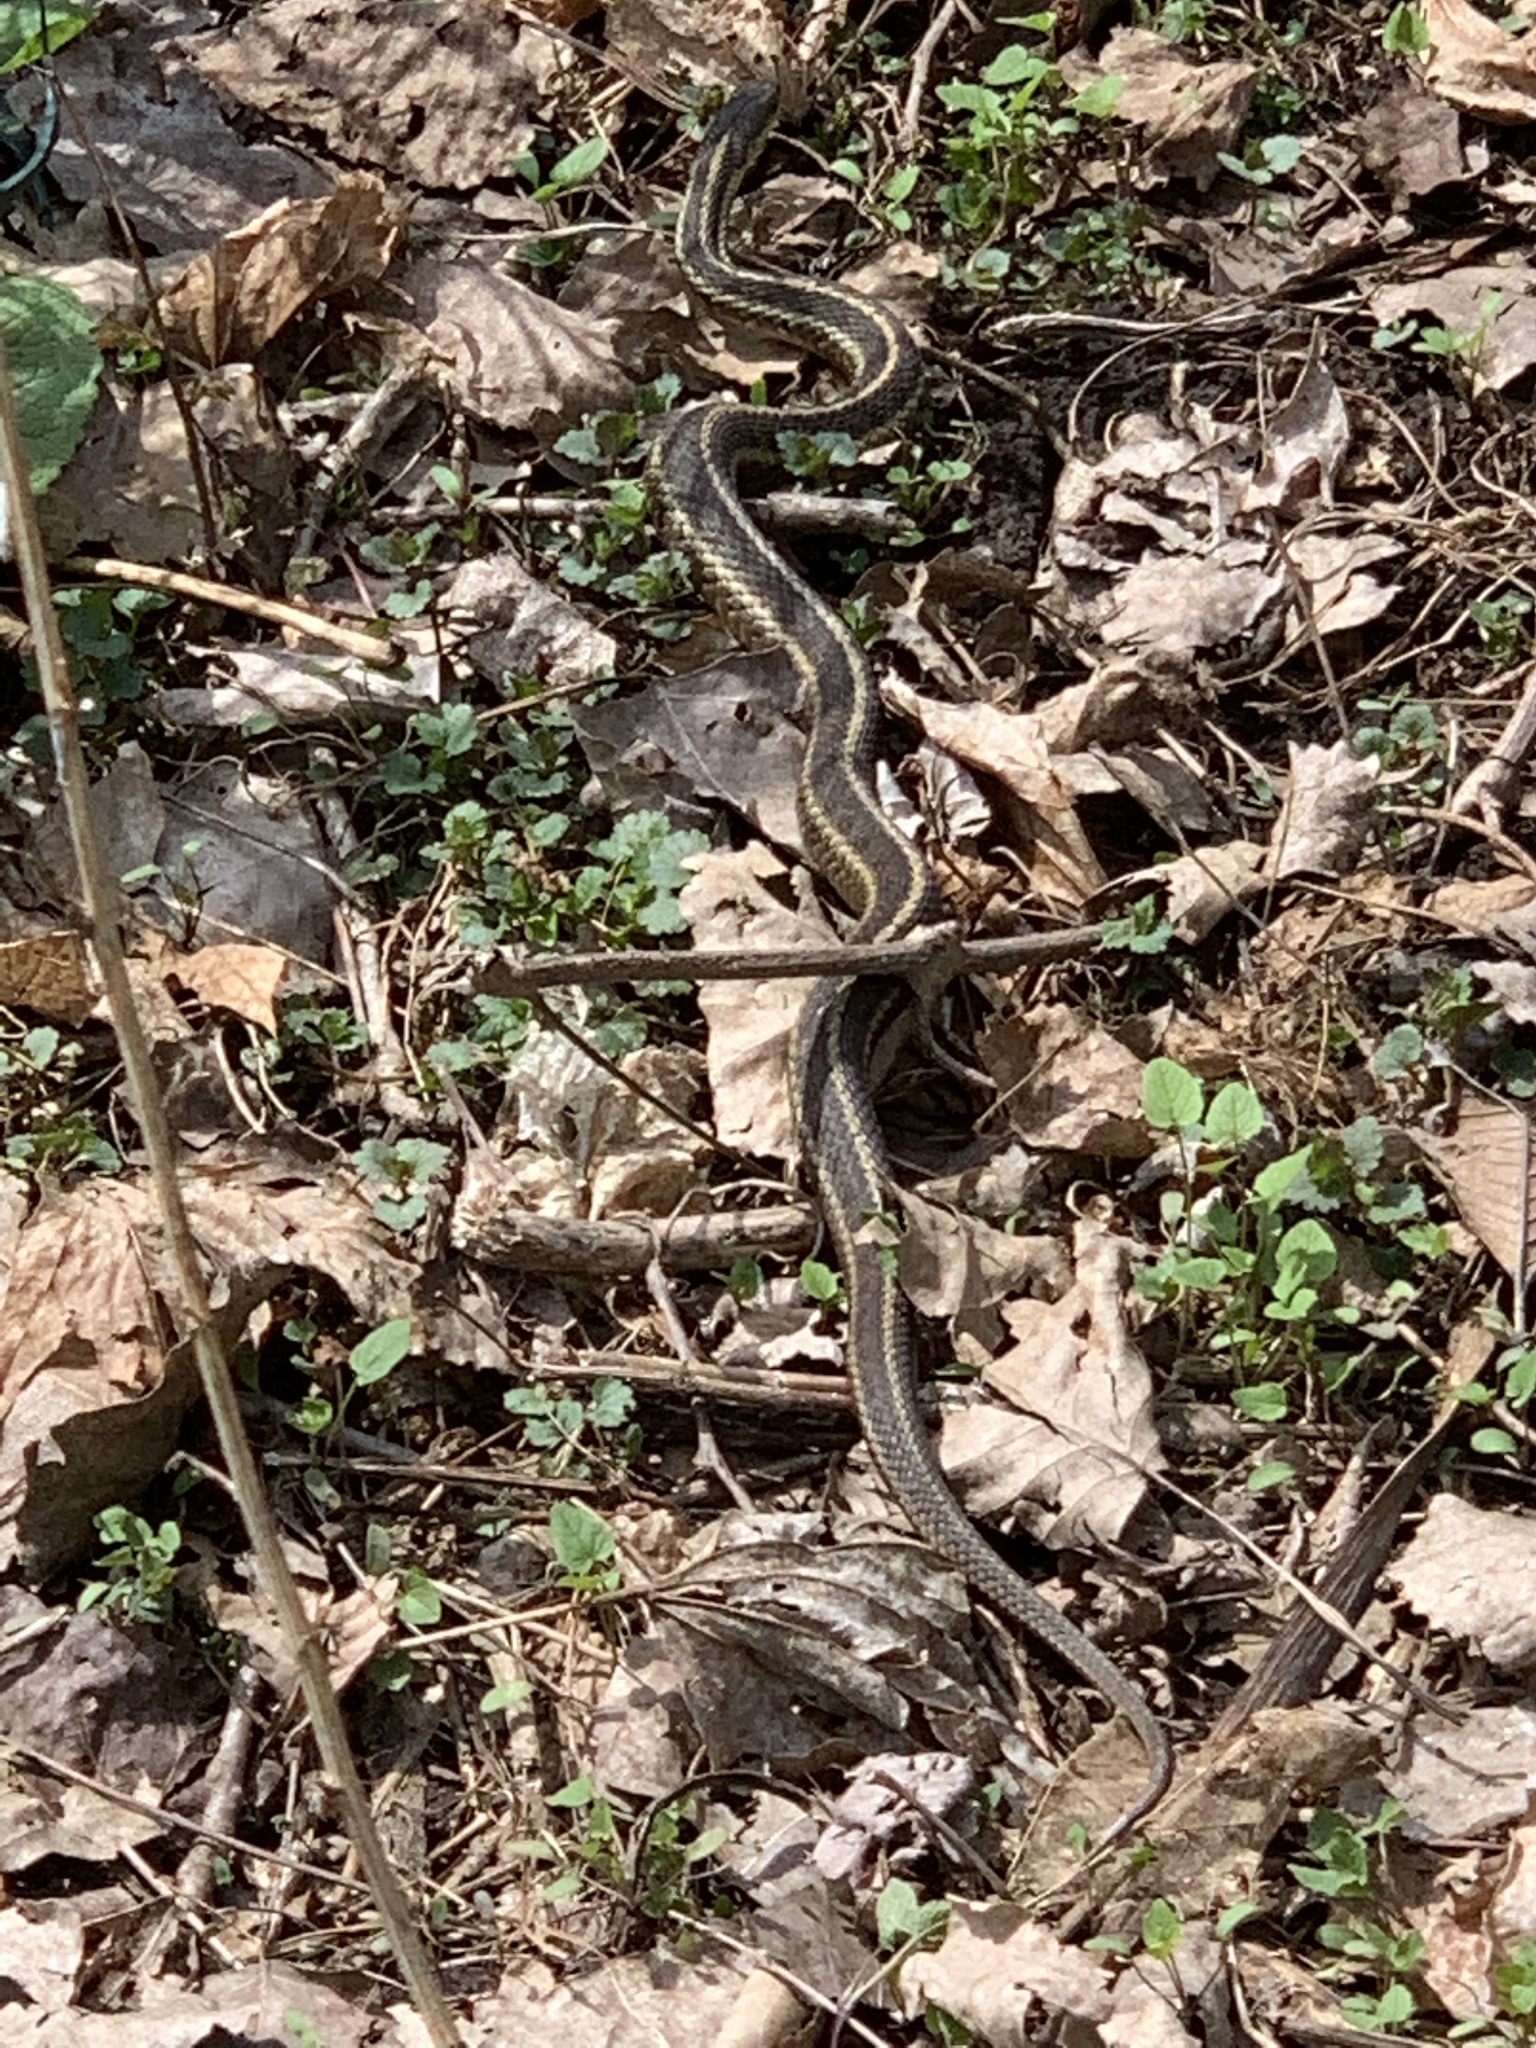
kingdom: Animalia
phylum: Chordata
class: Squamata
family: Colubridae
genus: Thamnophis
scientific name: Thamnophis sirtalis
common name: Common garter snake
